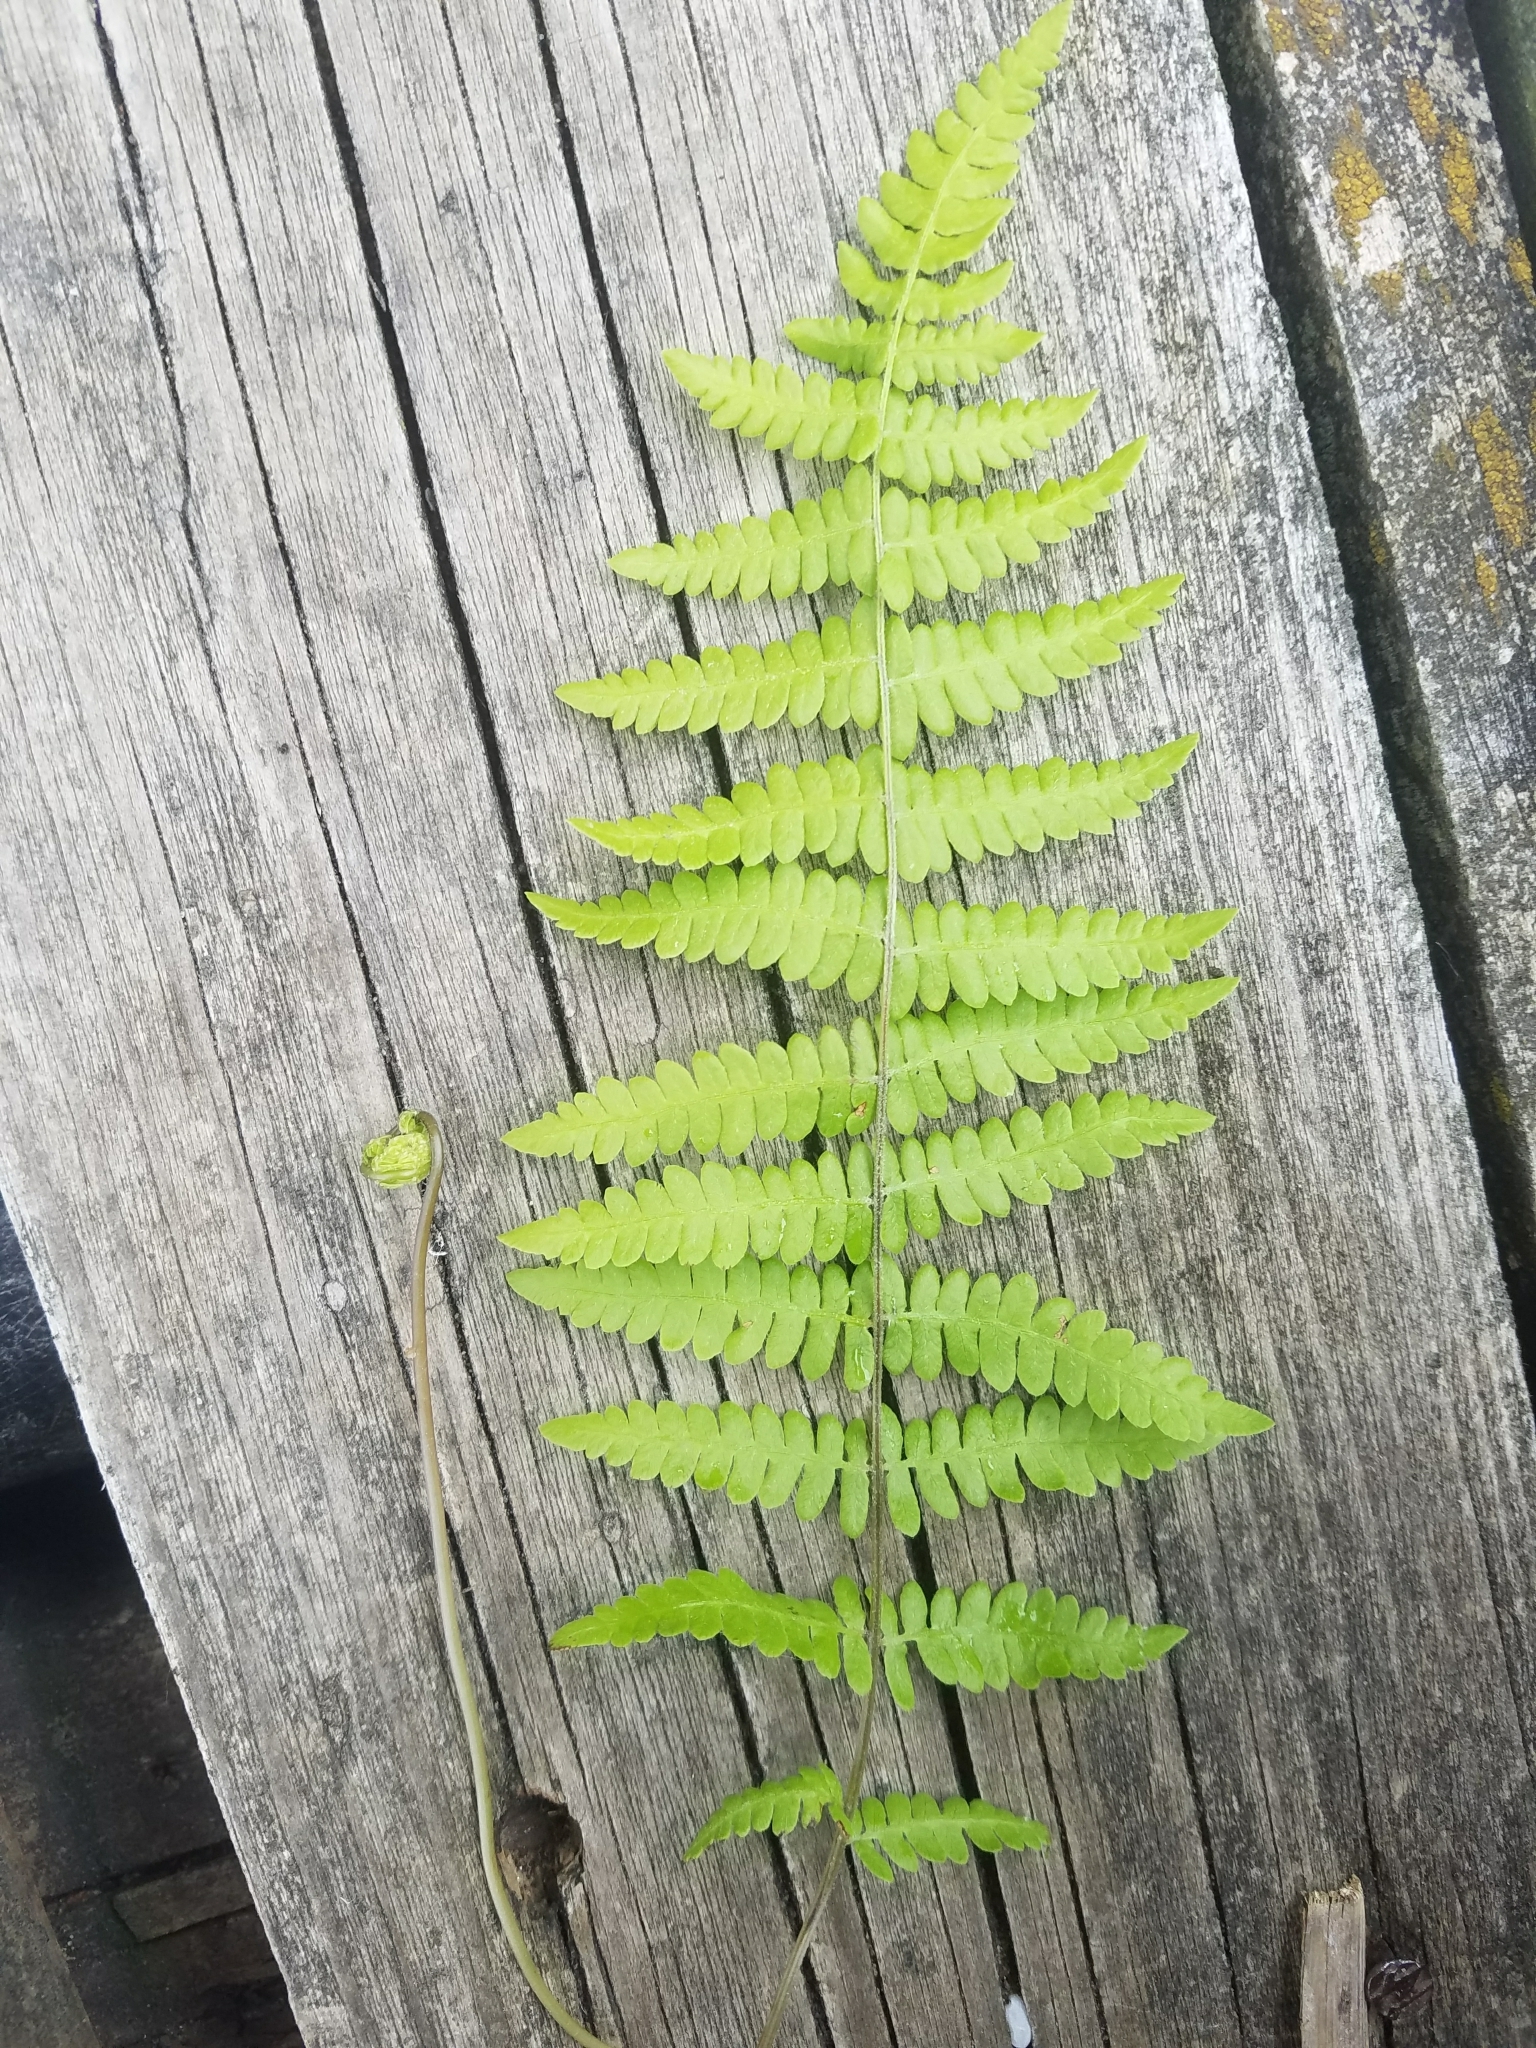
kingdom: Plantae
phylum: Tracheophyta
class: Polypodiopsida
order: Polypodiales
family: Thelypteridaceae
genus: Thelypteris
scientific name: Thelypteris palustris
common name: Marsh fern
